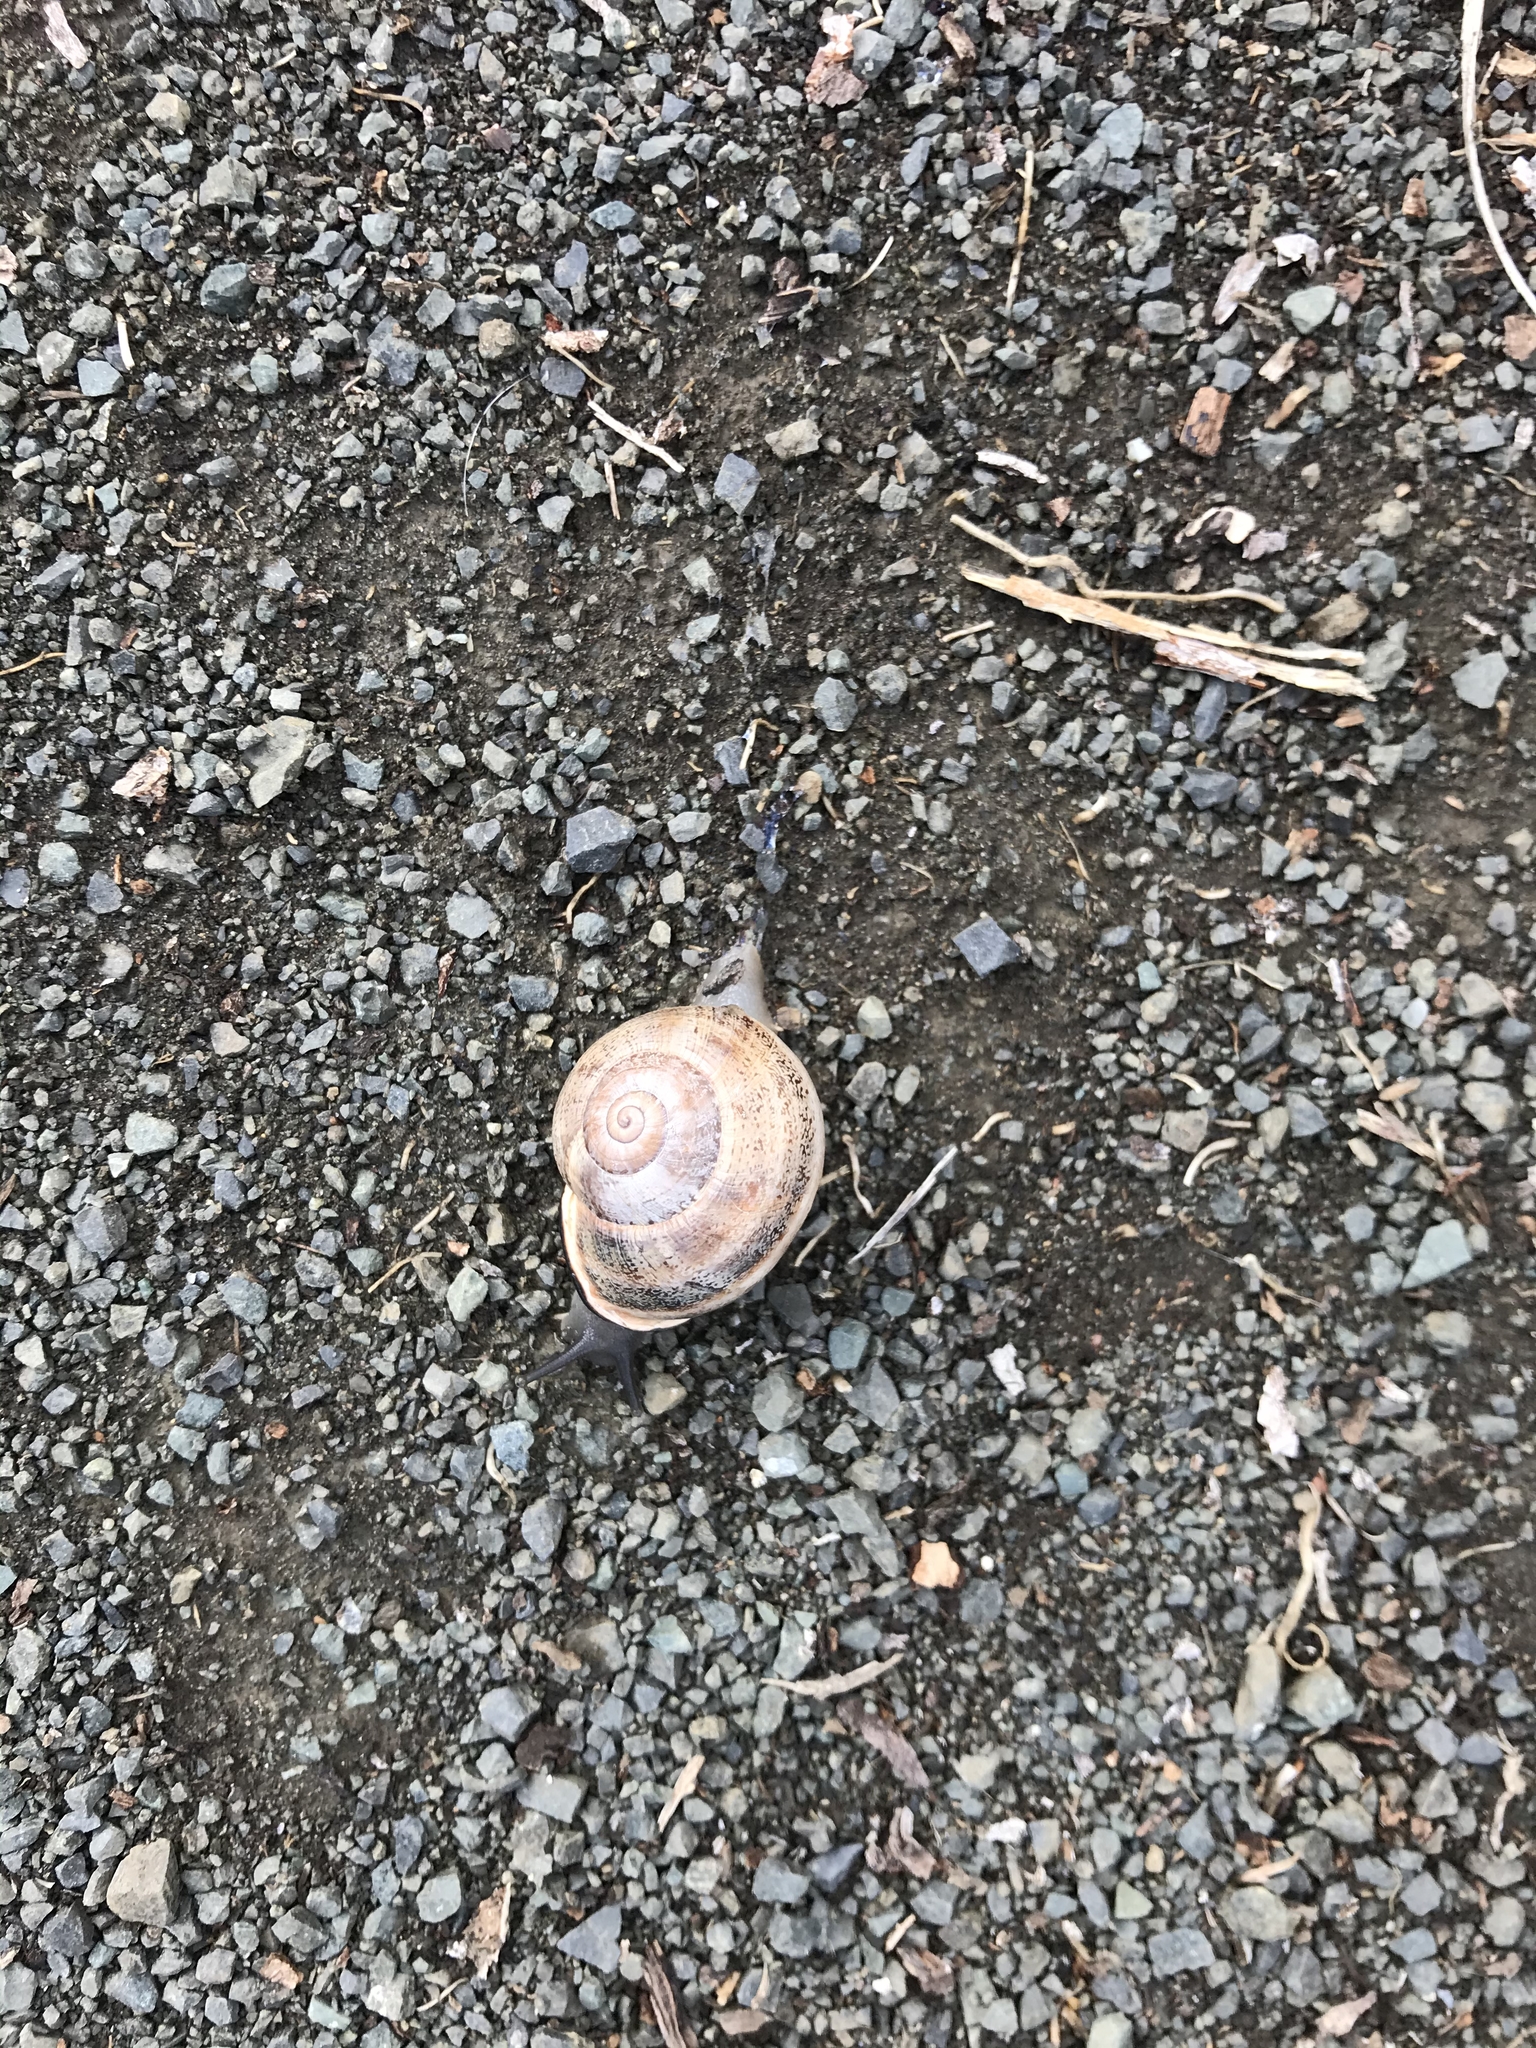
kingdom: Animalia
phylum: Mollusca
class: Gastropoda
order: Stylommatophora
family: Helicidae
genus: Otala
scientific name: Otala lactea
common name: Milk snail
